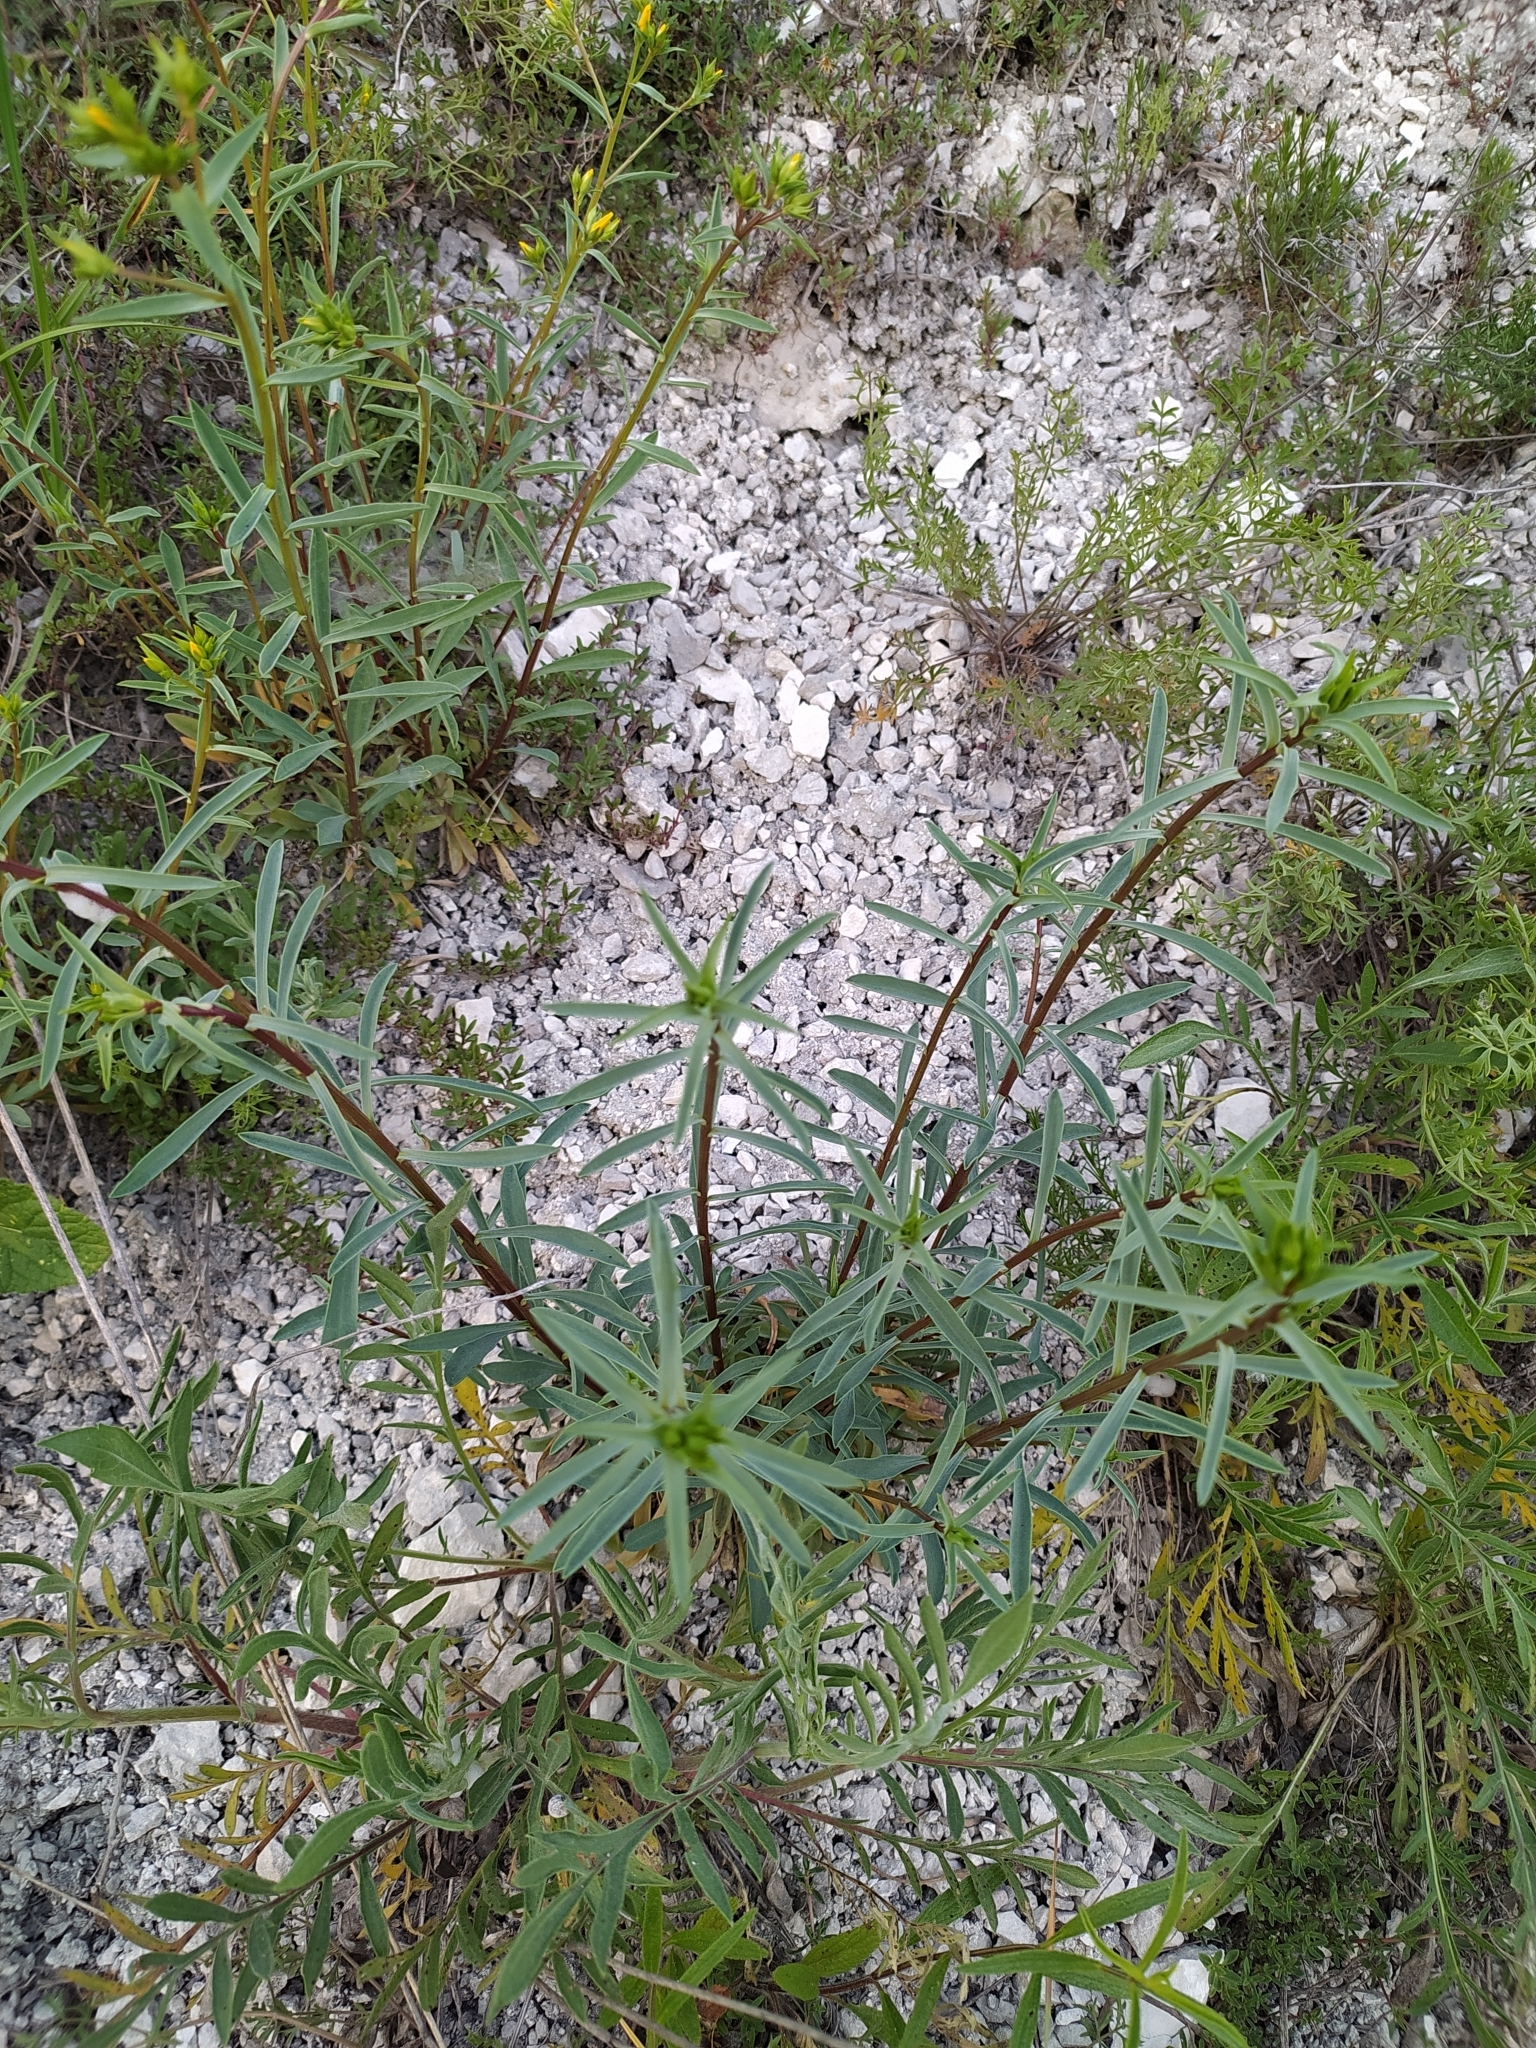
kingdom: Plantae
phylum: Tracheophyta
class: Magnoliopsida
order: Malpighiales
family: Linaceae
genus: Linum
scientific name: Linum ucranicum
